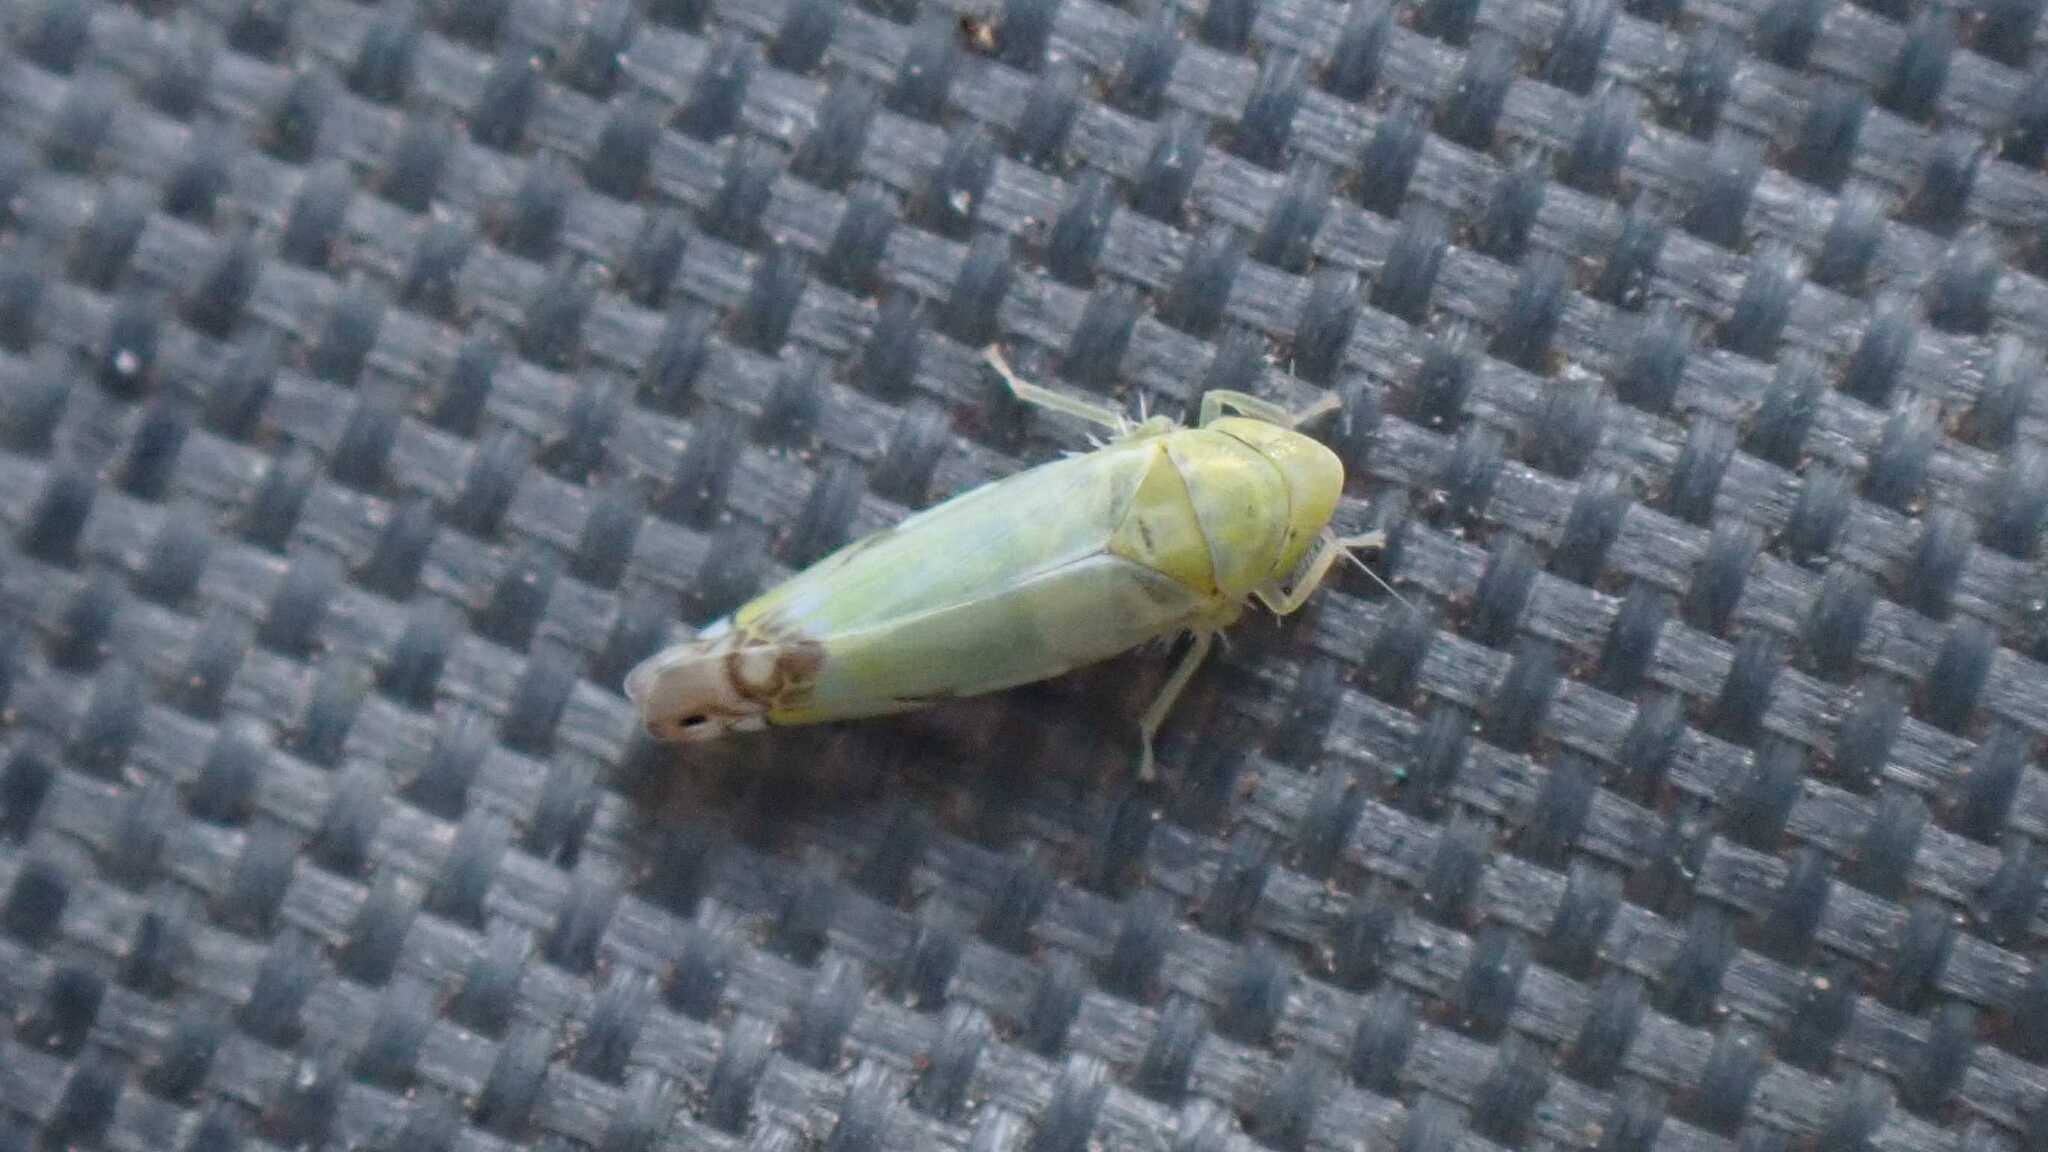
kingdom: Animalia
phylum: Arthropoda
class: Insecta
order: Hemiptera
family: Cicadellidae
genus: Zyginella
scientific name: Zyginella pulchra
